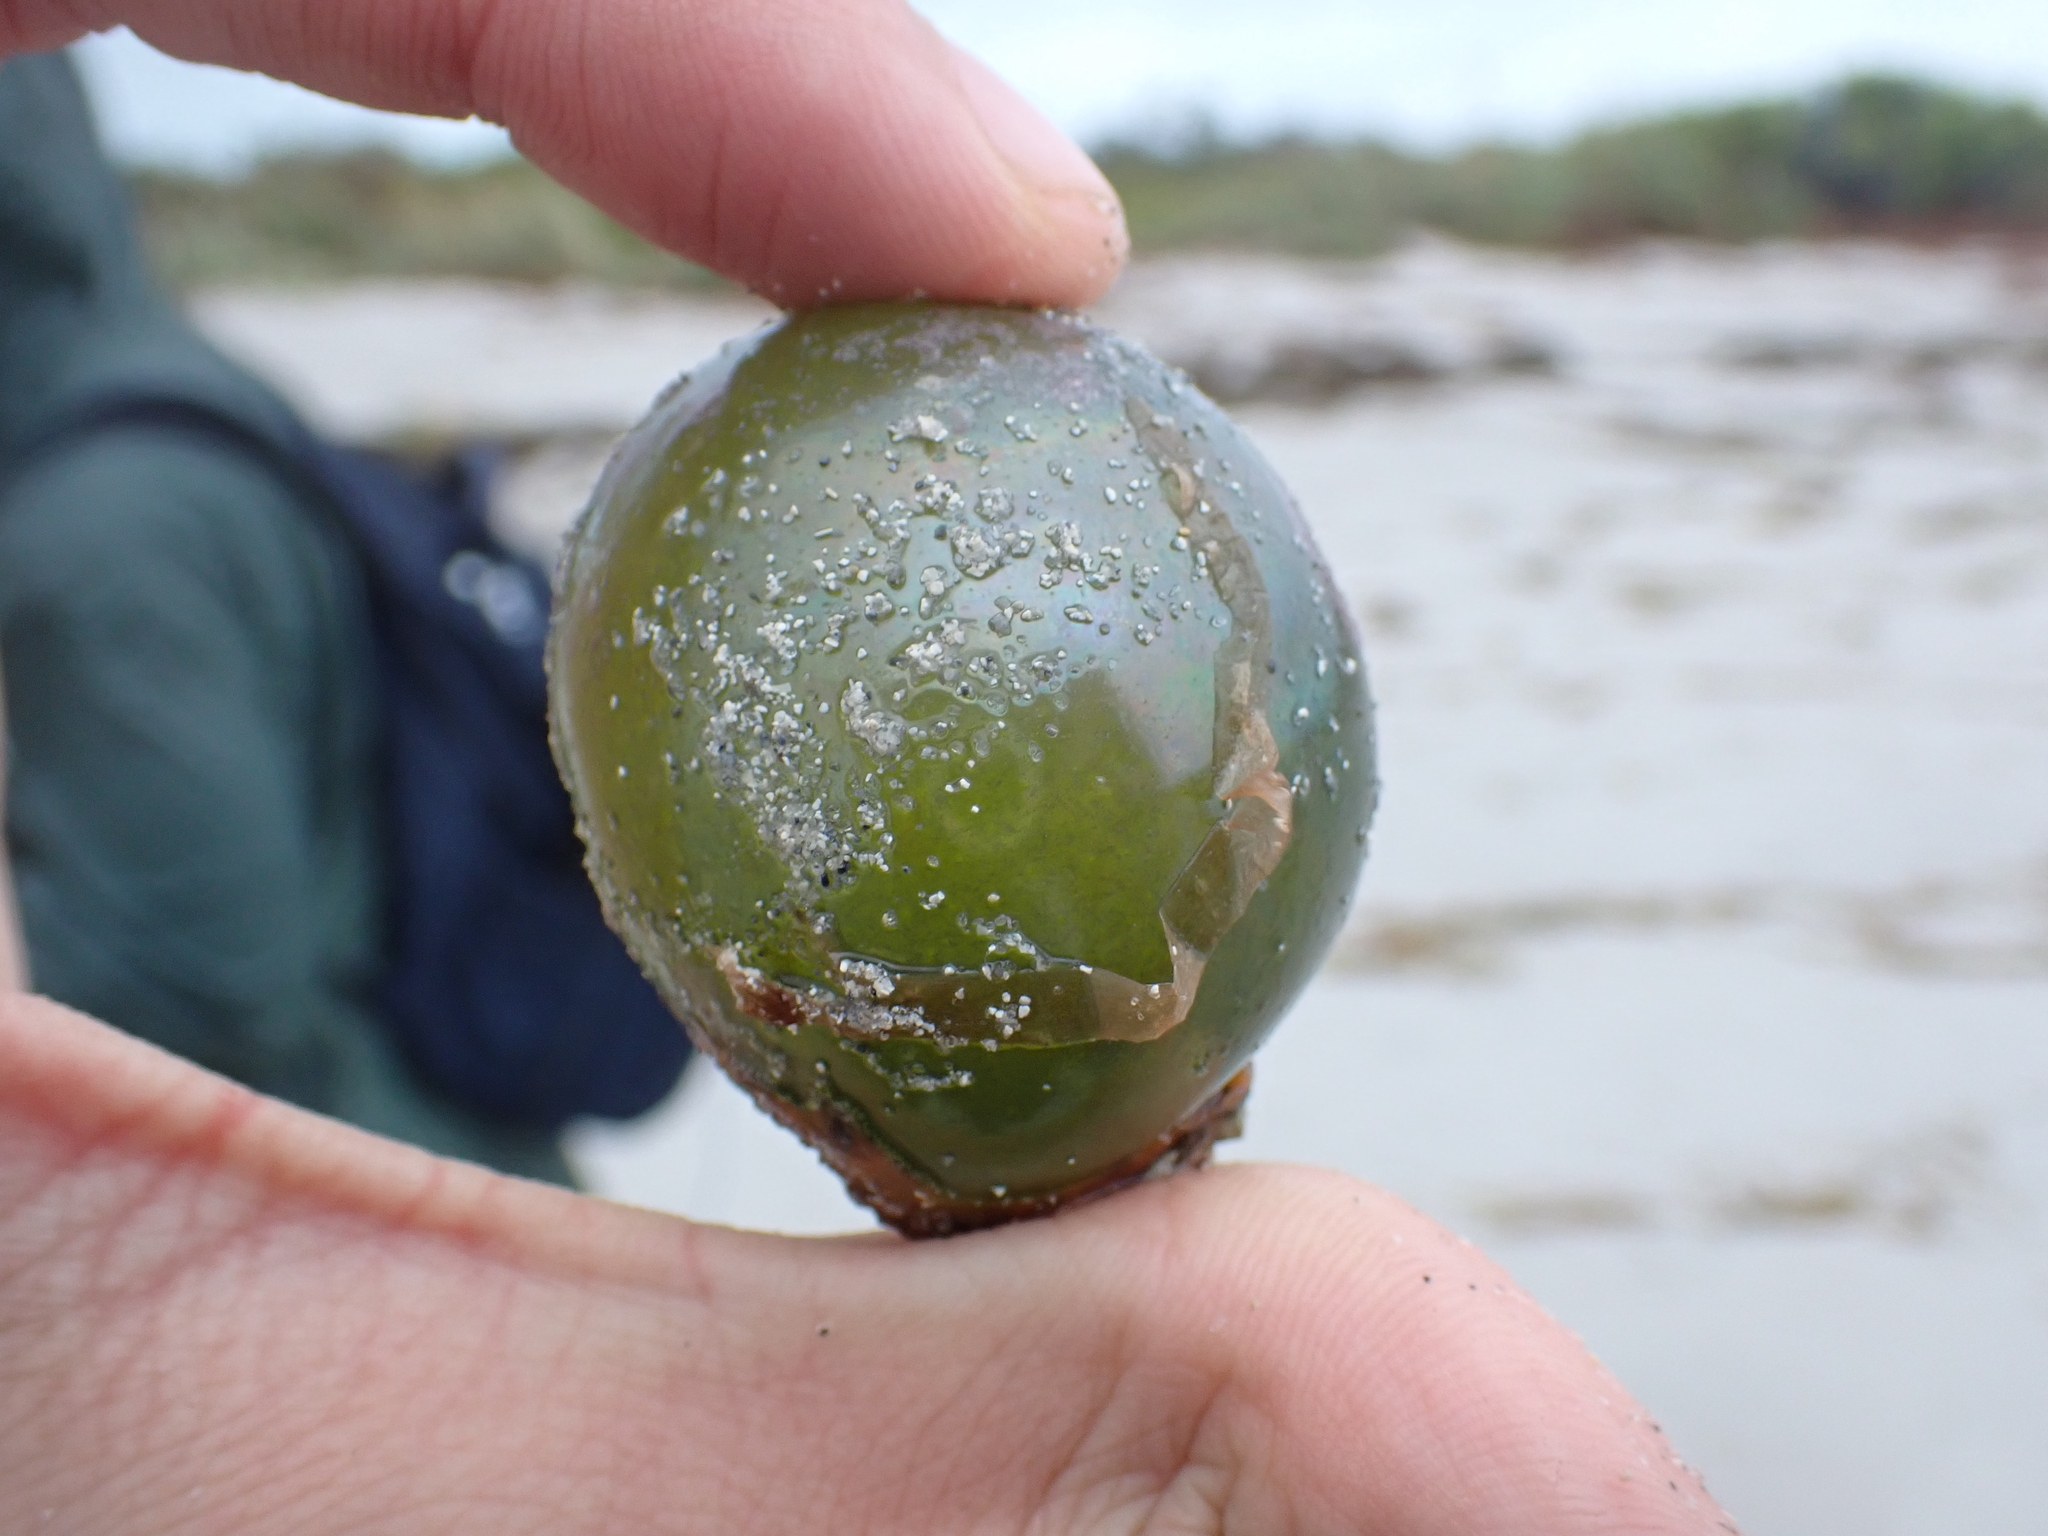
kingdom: Plantae
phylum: Chlorophyta
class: Ulvophyceae
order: Siphonocladales
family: Valoniaceae
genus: Valonia
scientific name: Valonia ventricosa
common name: Sea pearl
